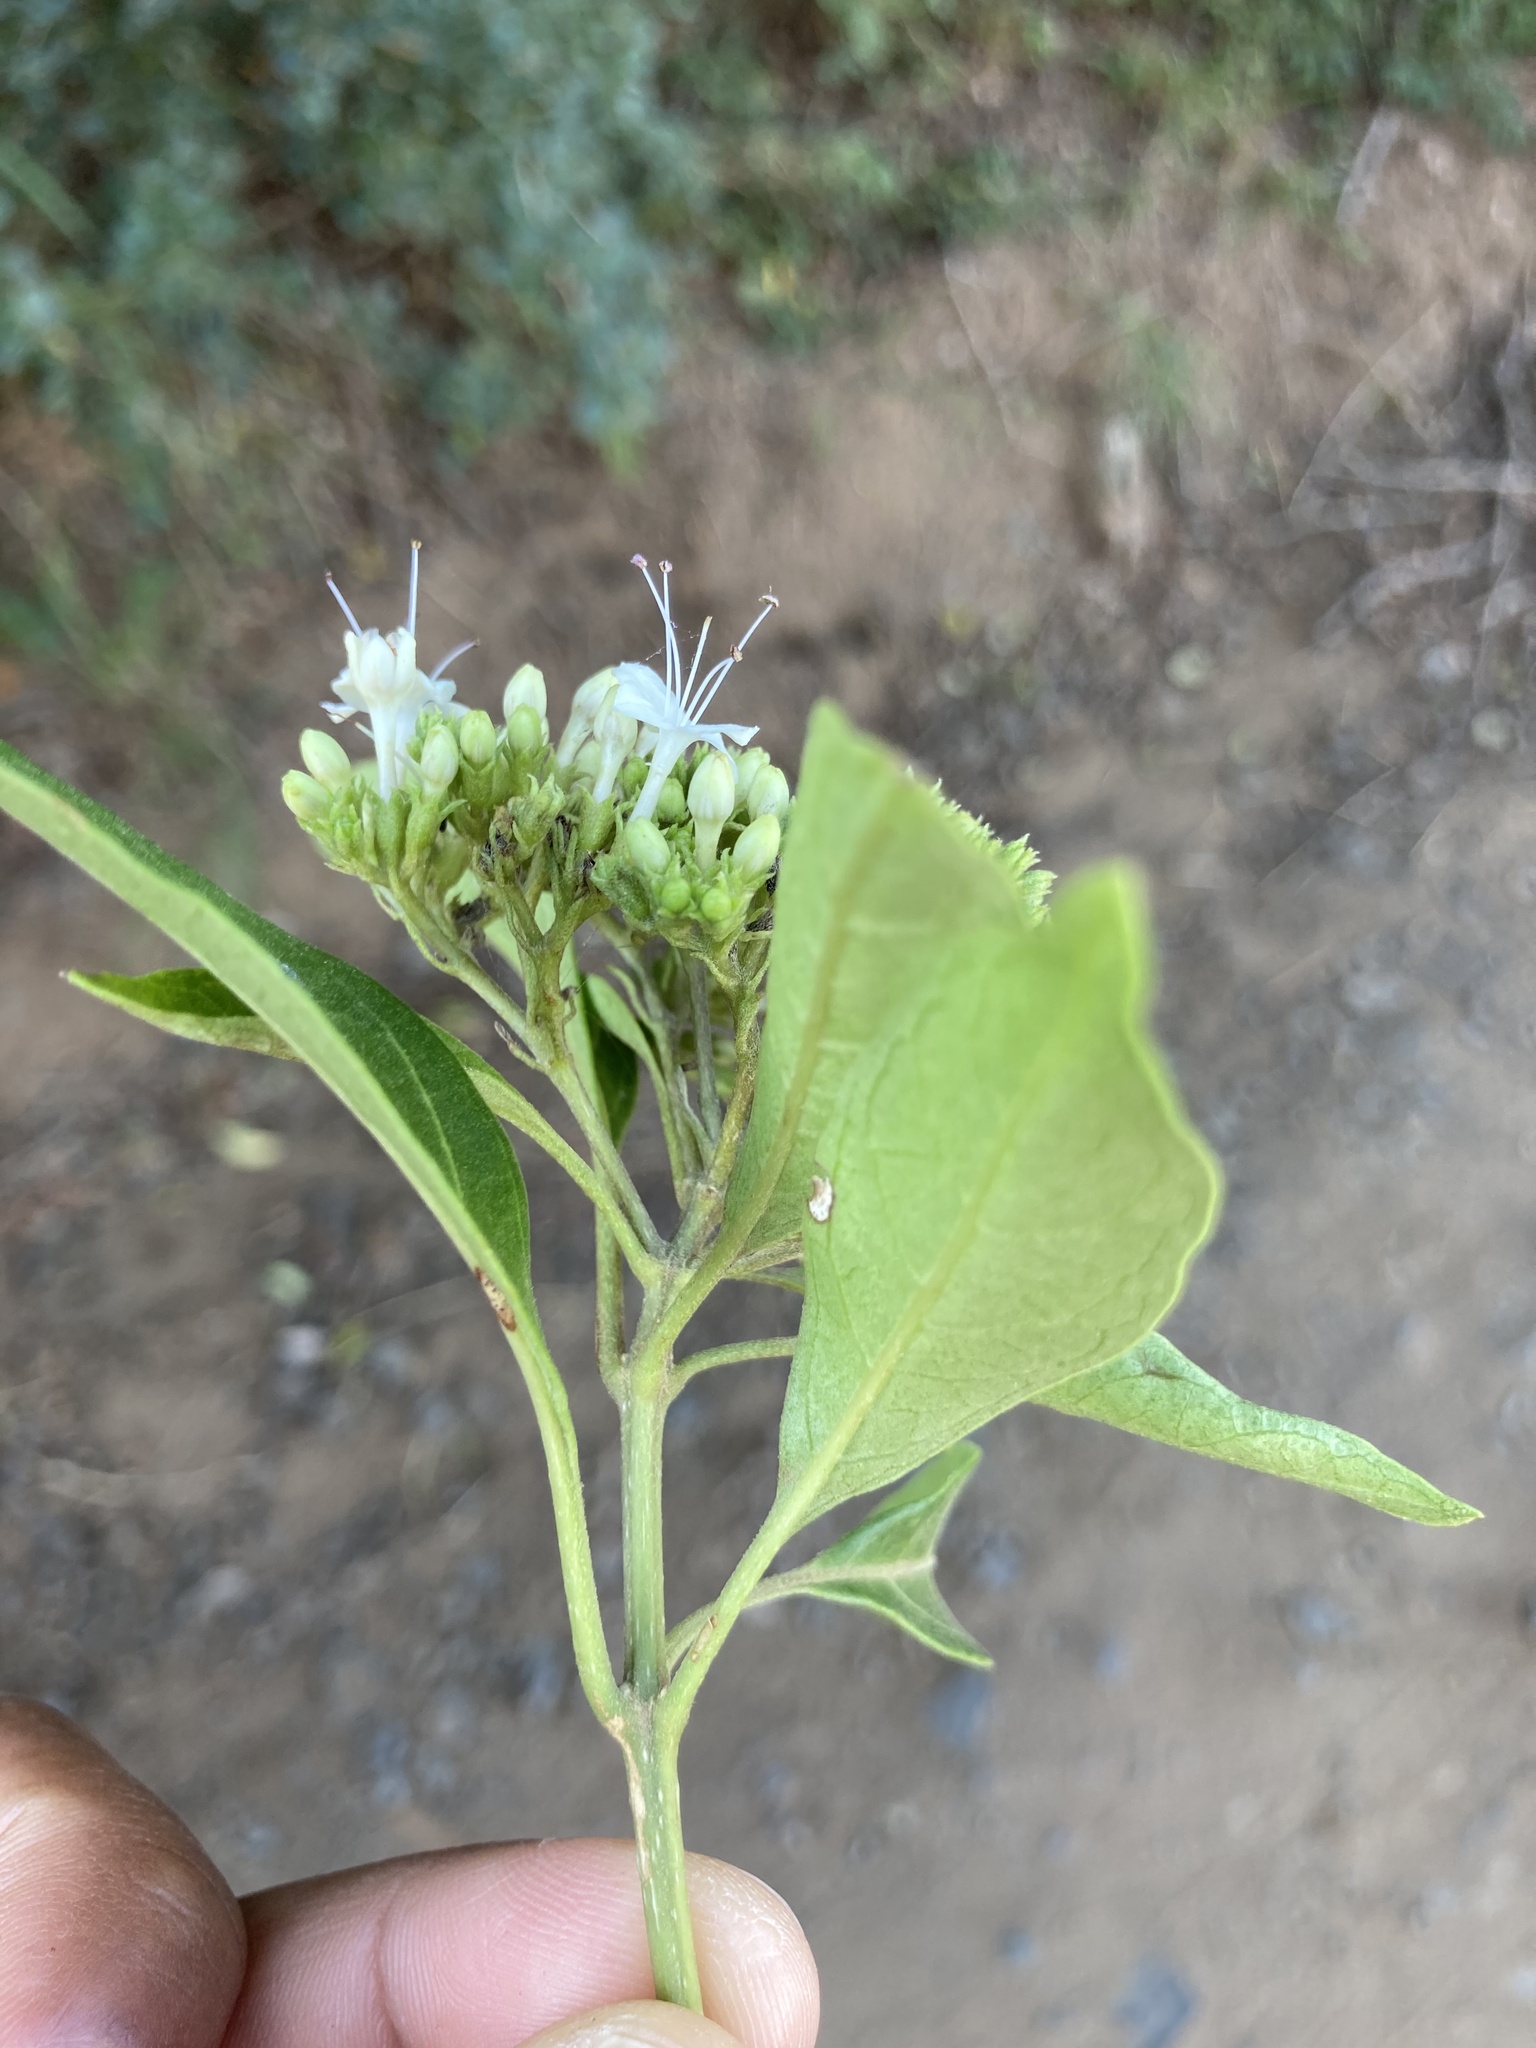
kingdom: Plantae
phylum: Tracheophyta
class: Magnoliopsida
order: Lamiales
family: Lamiaceae
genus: Volkameria
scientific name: Volkameria glabra
